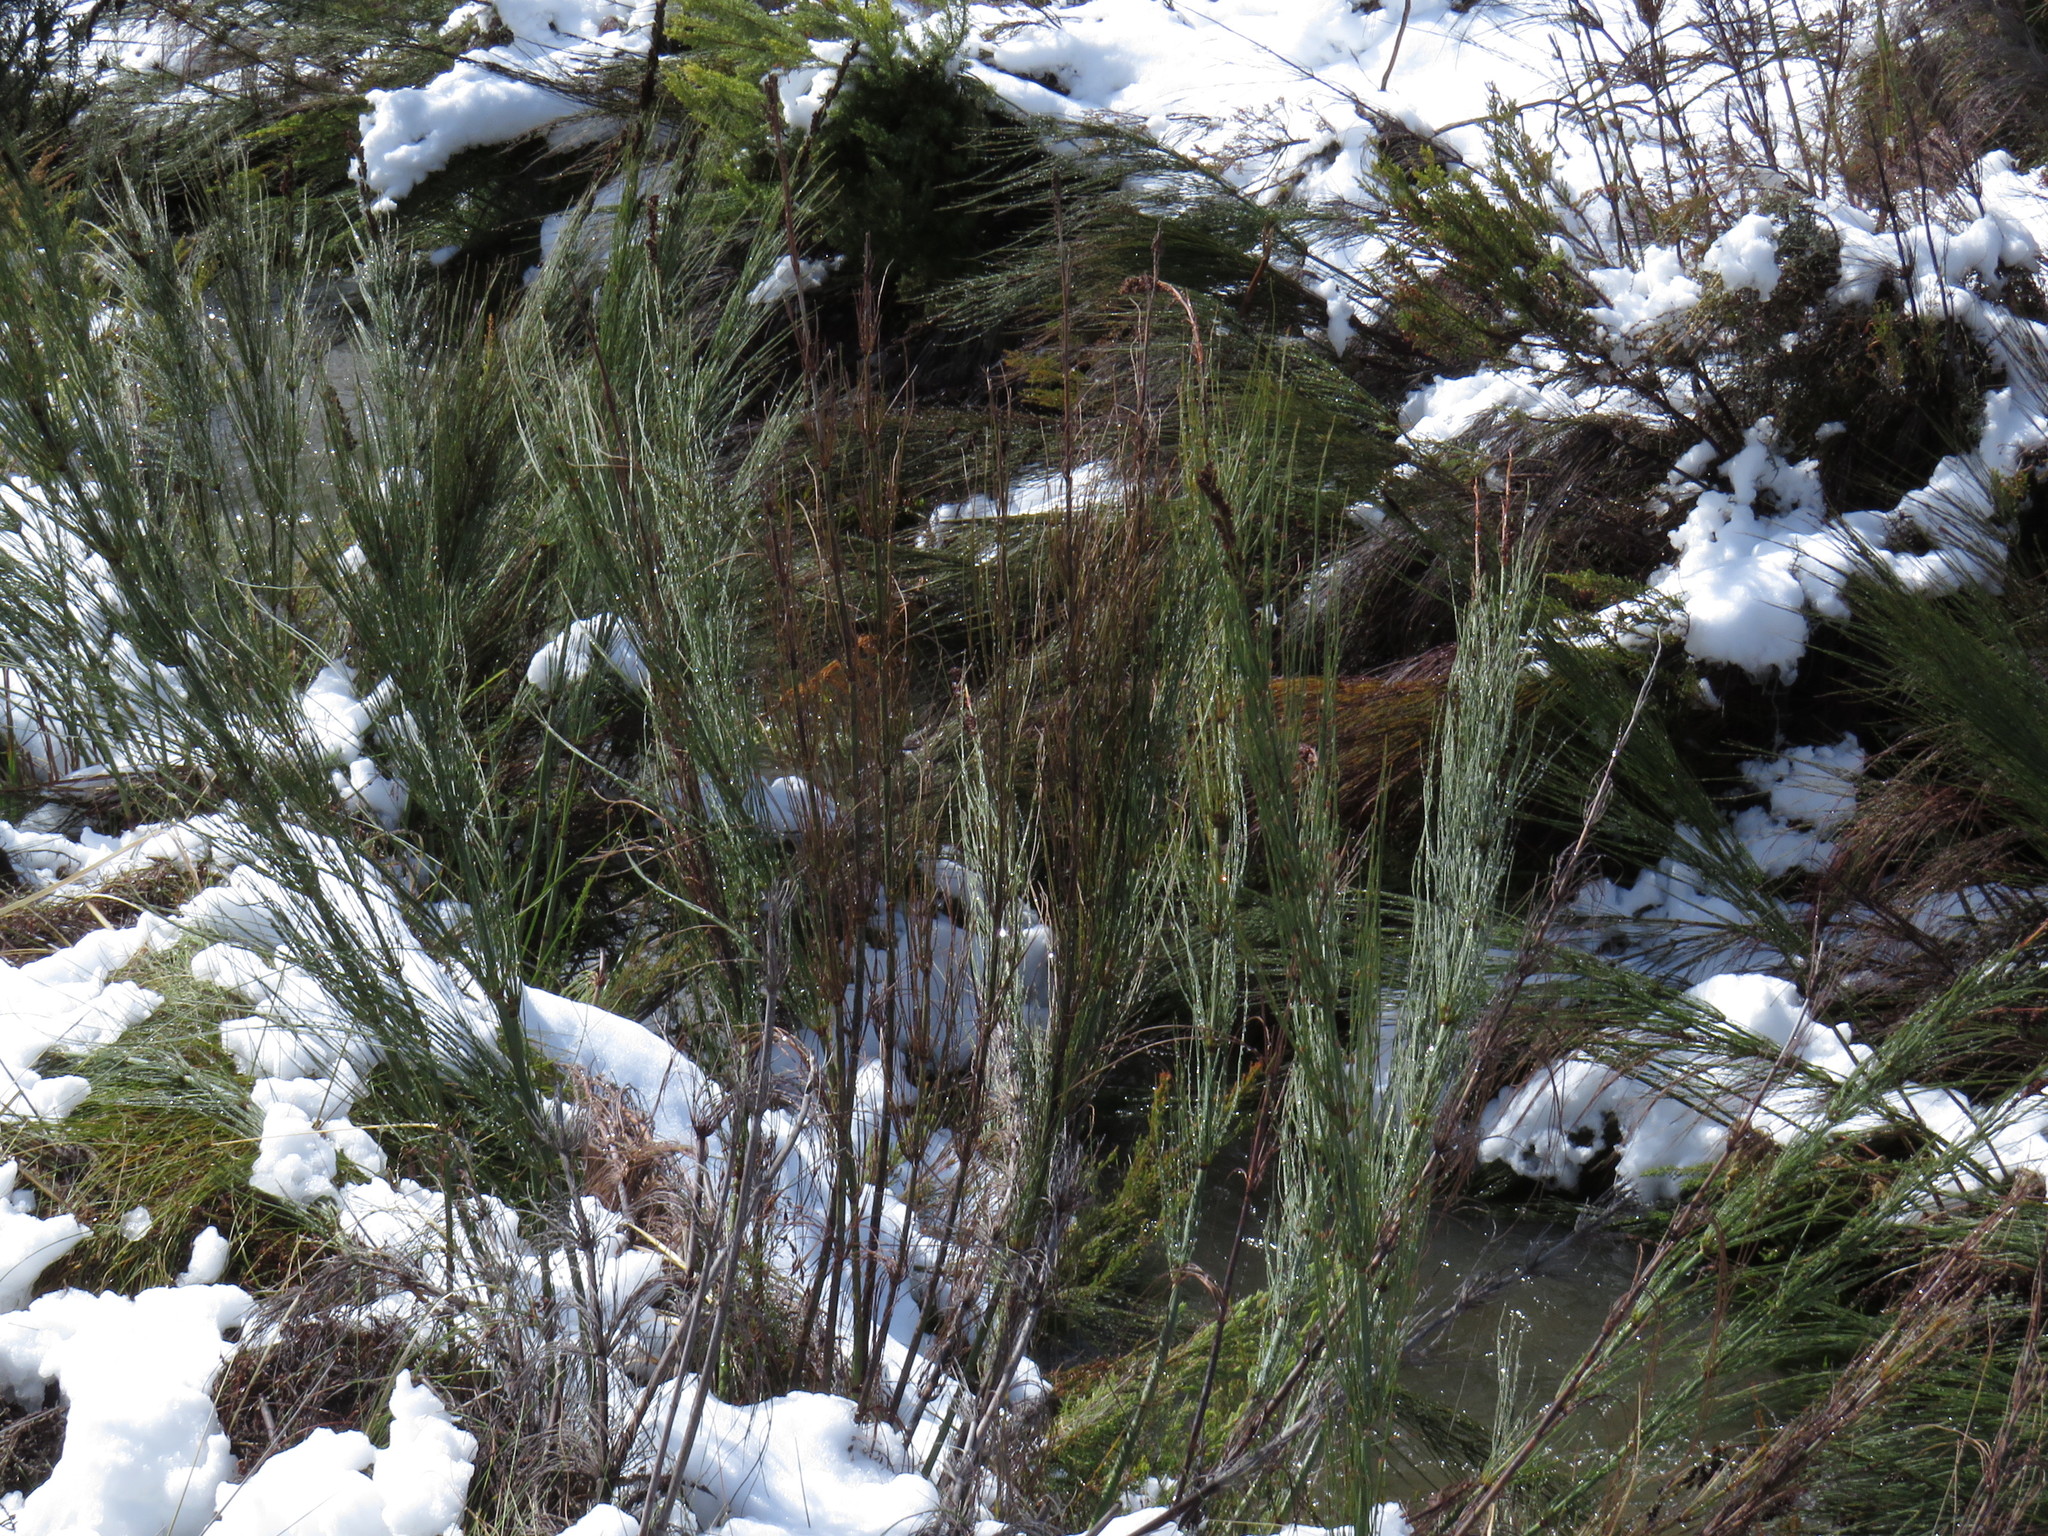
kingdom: Plantae
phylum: Tracheophyta
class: Liliopsida
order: Poales
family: Restionaceae
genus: Elegia
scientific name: Elegia capensis
